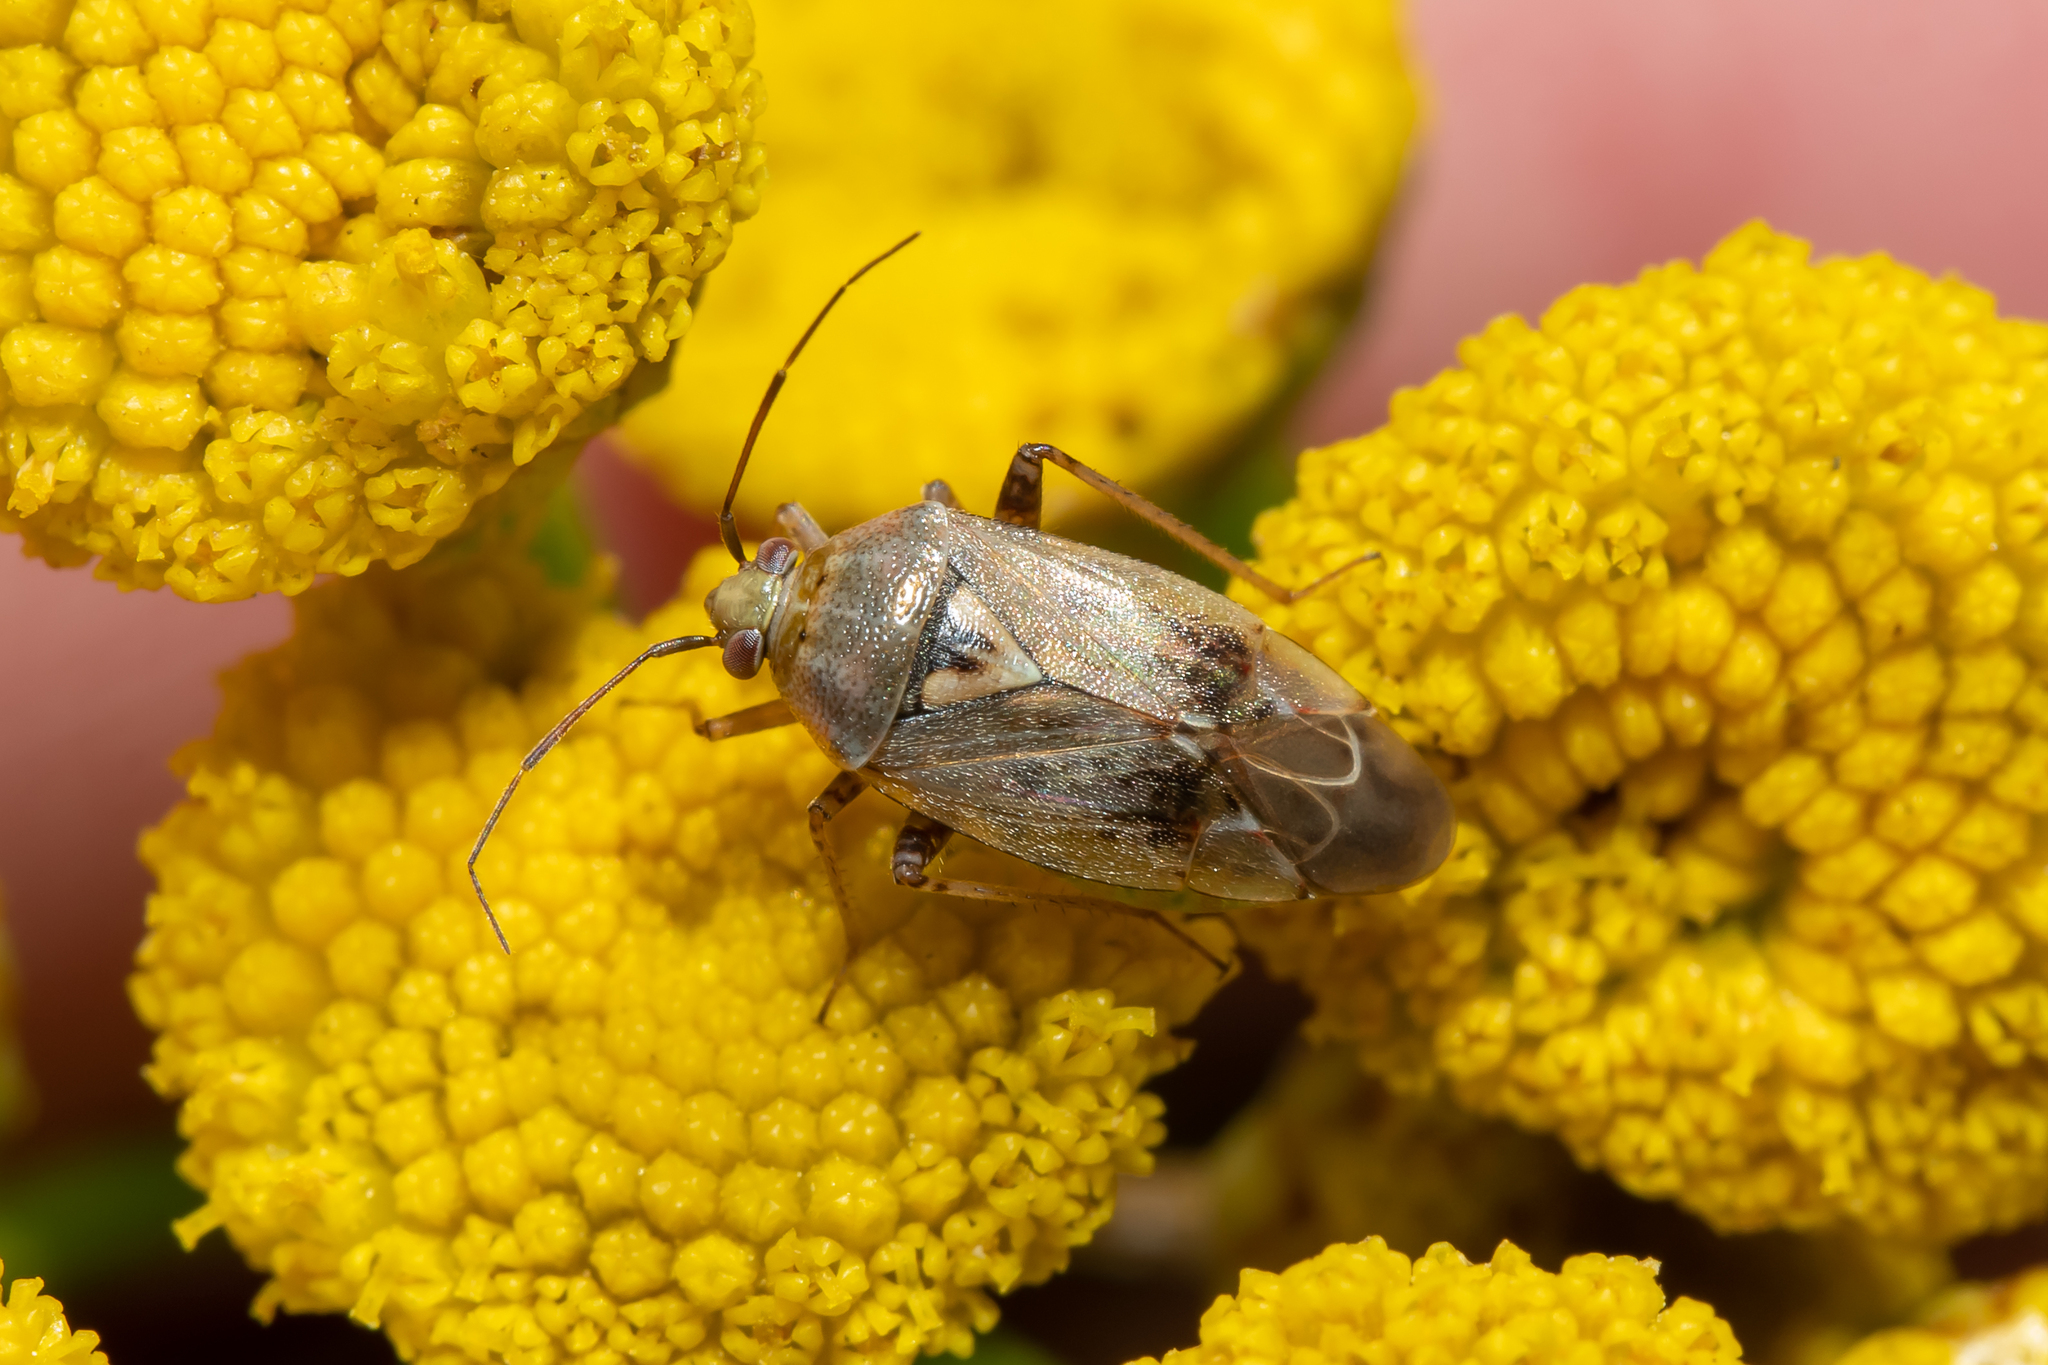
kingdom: Animalia
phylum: Arthropoda
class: Insecta
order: Hemiptera
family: Miridae
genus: Lygus
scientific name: Lygus rugulipennis
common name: European tarnished plant bug
